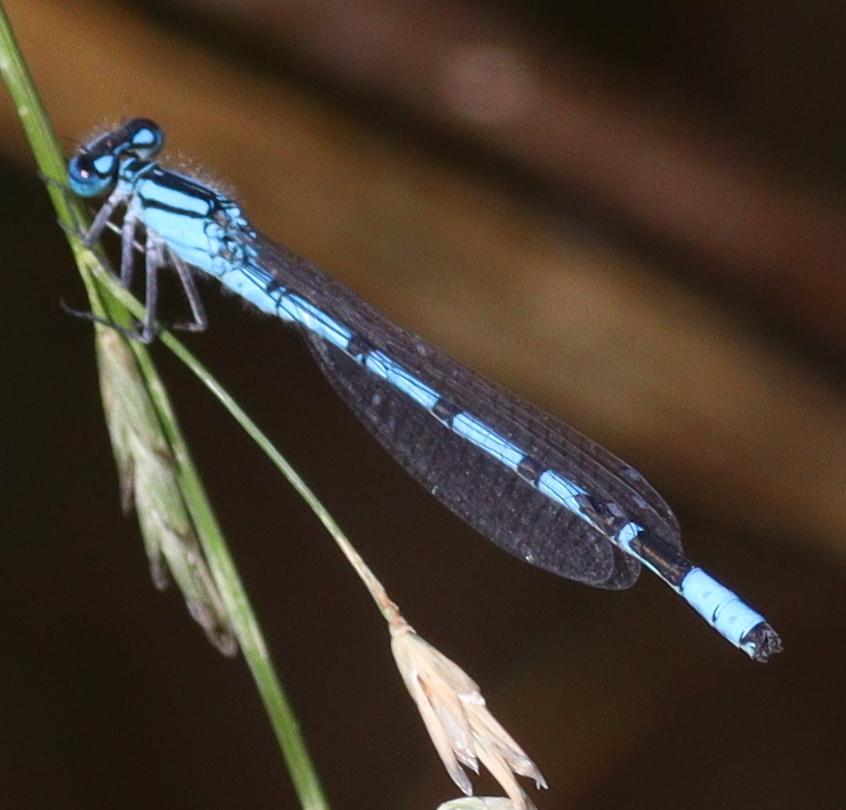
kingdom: Animalia
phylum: Arthropoda
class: Insecta
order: Odonata
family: Coenagrionidae
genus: Enallagma
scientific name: Enallagma cyathigerum
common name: Common blue damselfly
